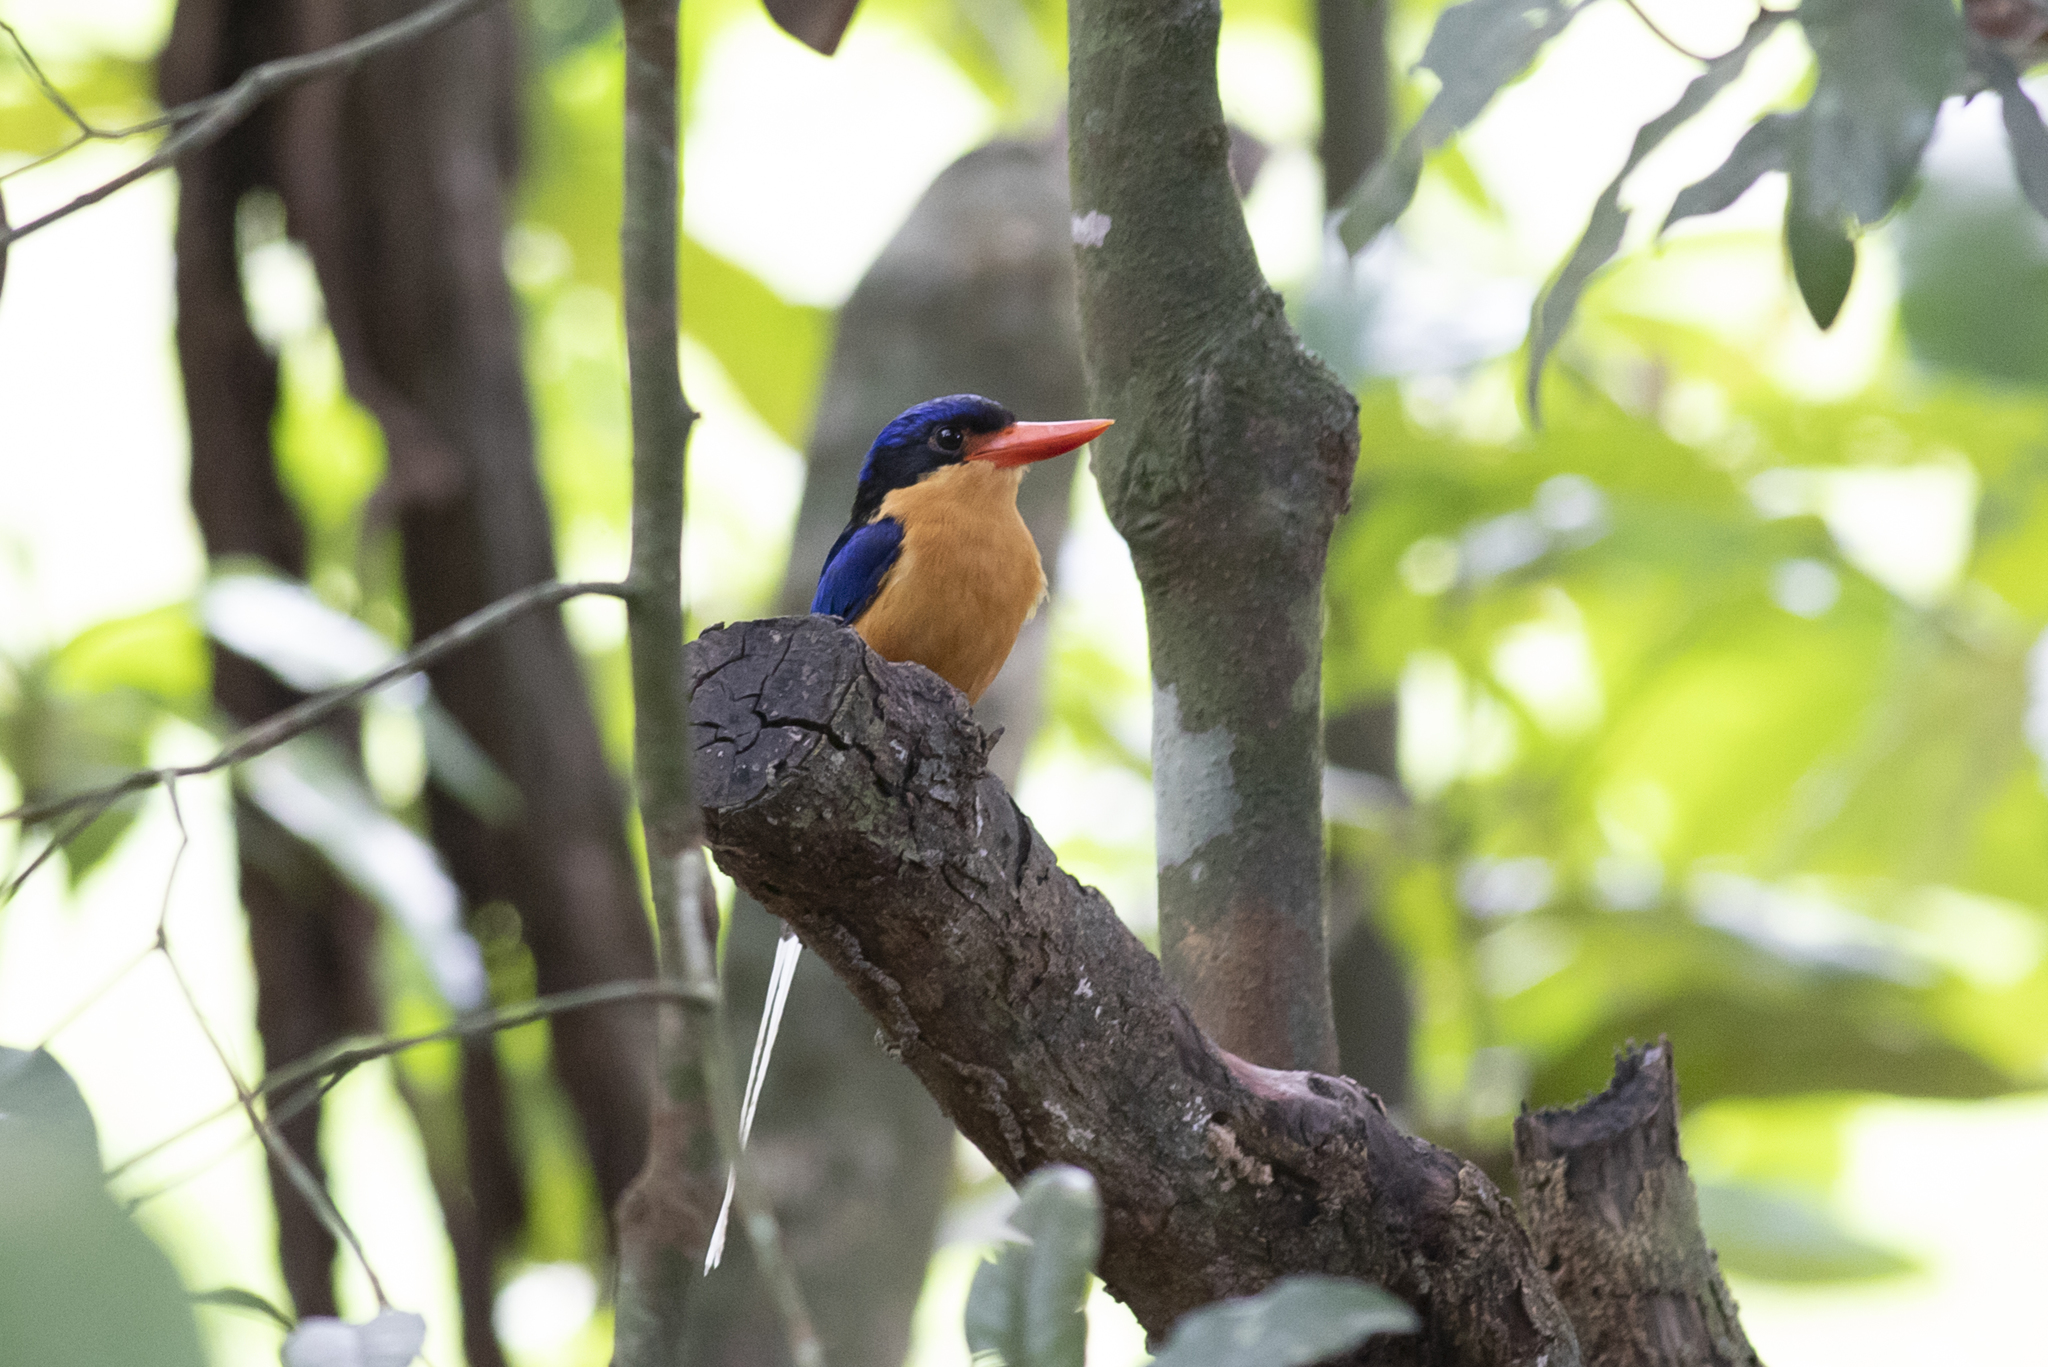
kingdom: Animalia
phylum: Chordata
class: Aves
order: Coraciiformes
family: Alcedinidae
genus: Tanysiptera
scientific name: Tanysiptera sylvia
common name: Buff-breasted paradise kingfisher
